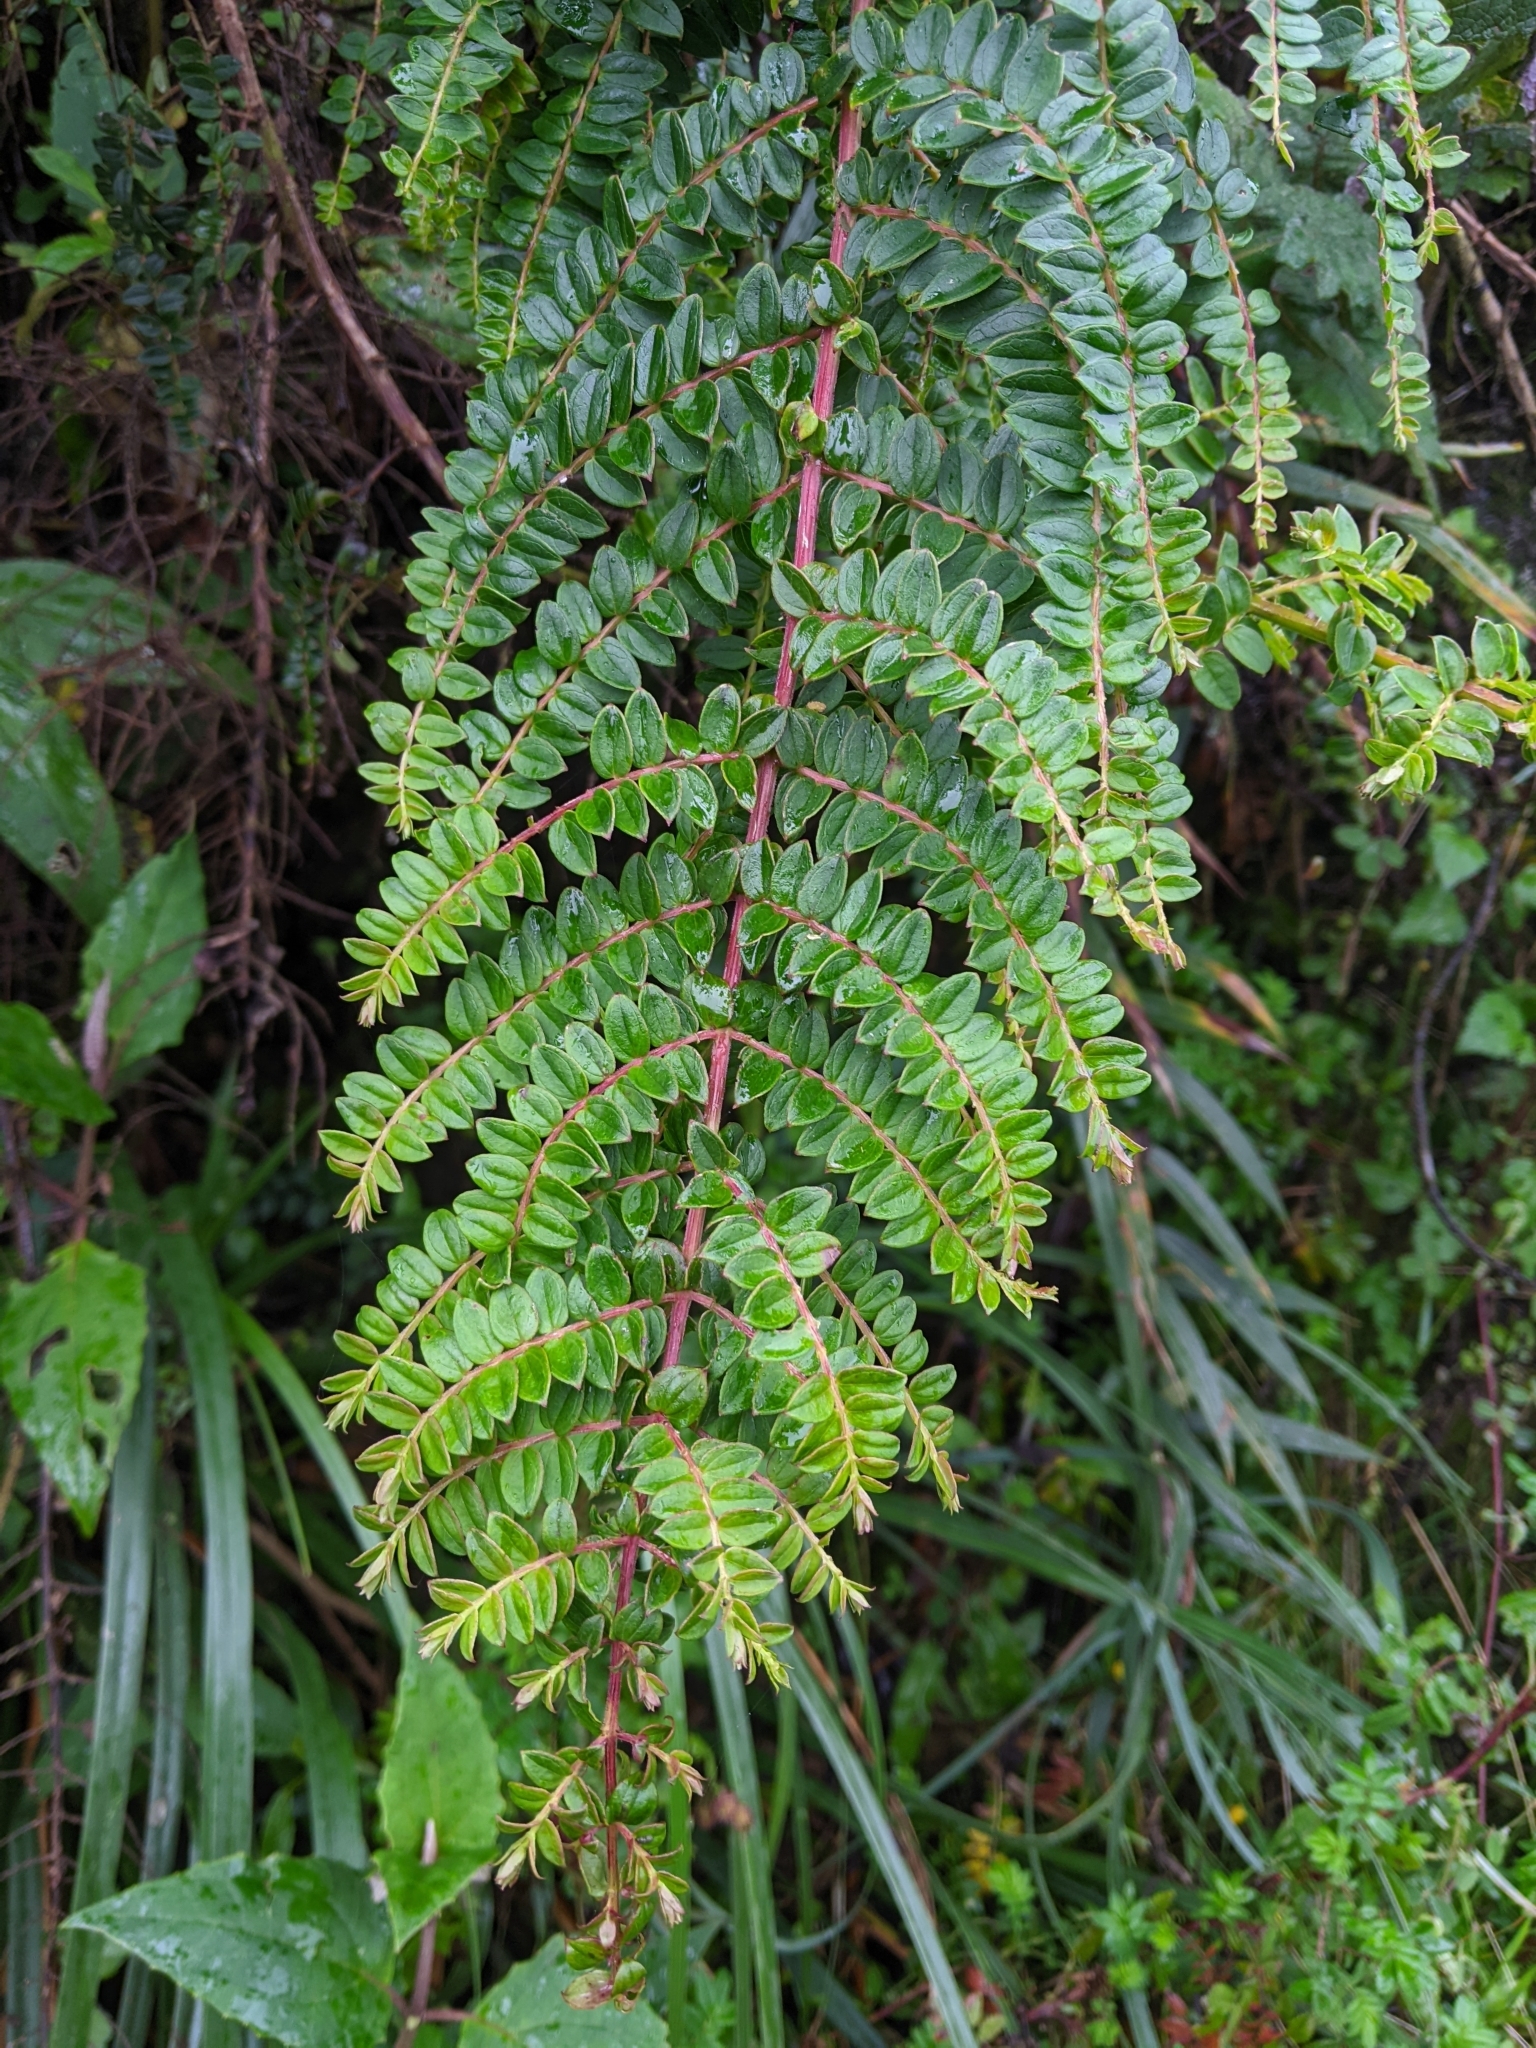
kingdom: Plantae
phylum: Tracheophyta
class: Magnoliopsida
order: Cucurbitales
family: Coriariaceae
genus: Coriaria
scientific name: Coriaria ruscifolia
